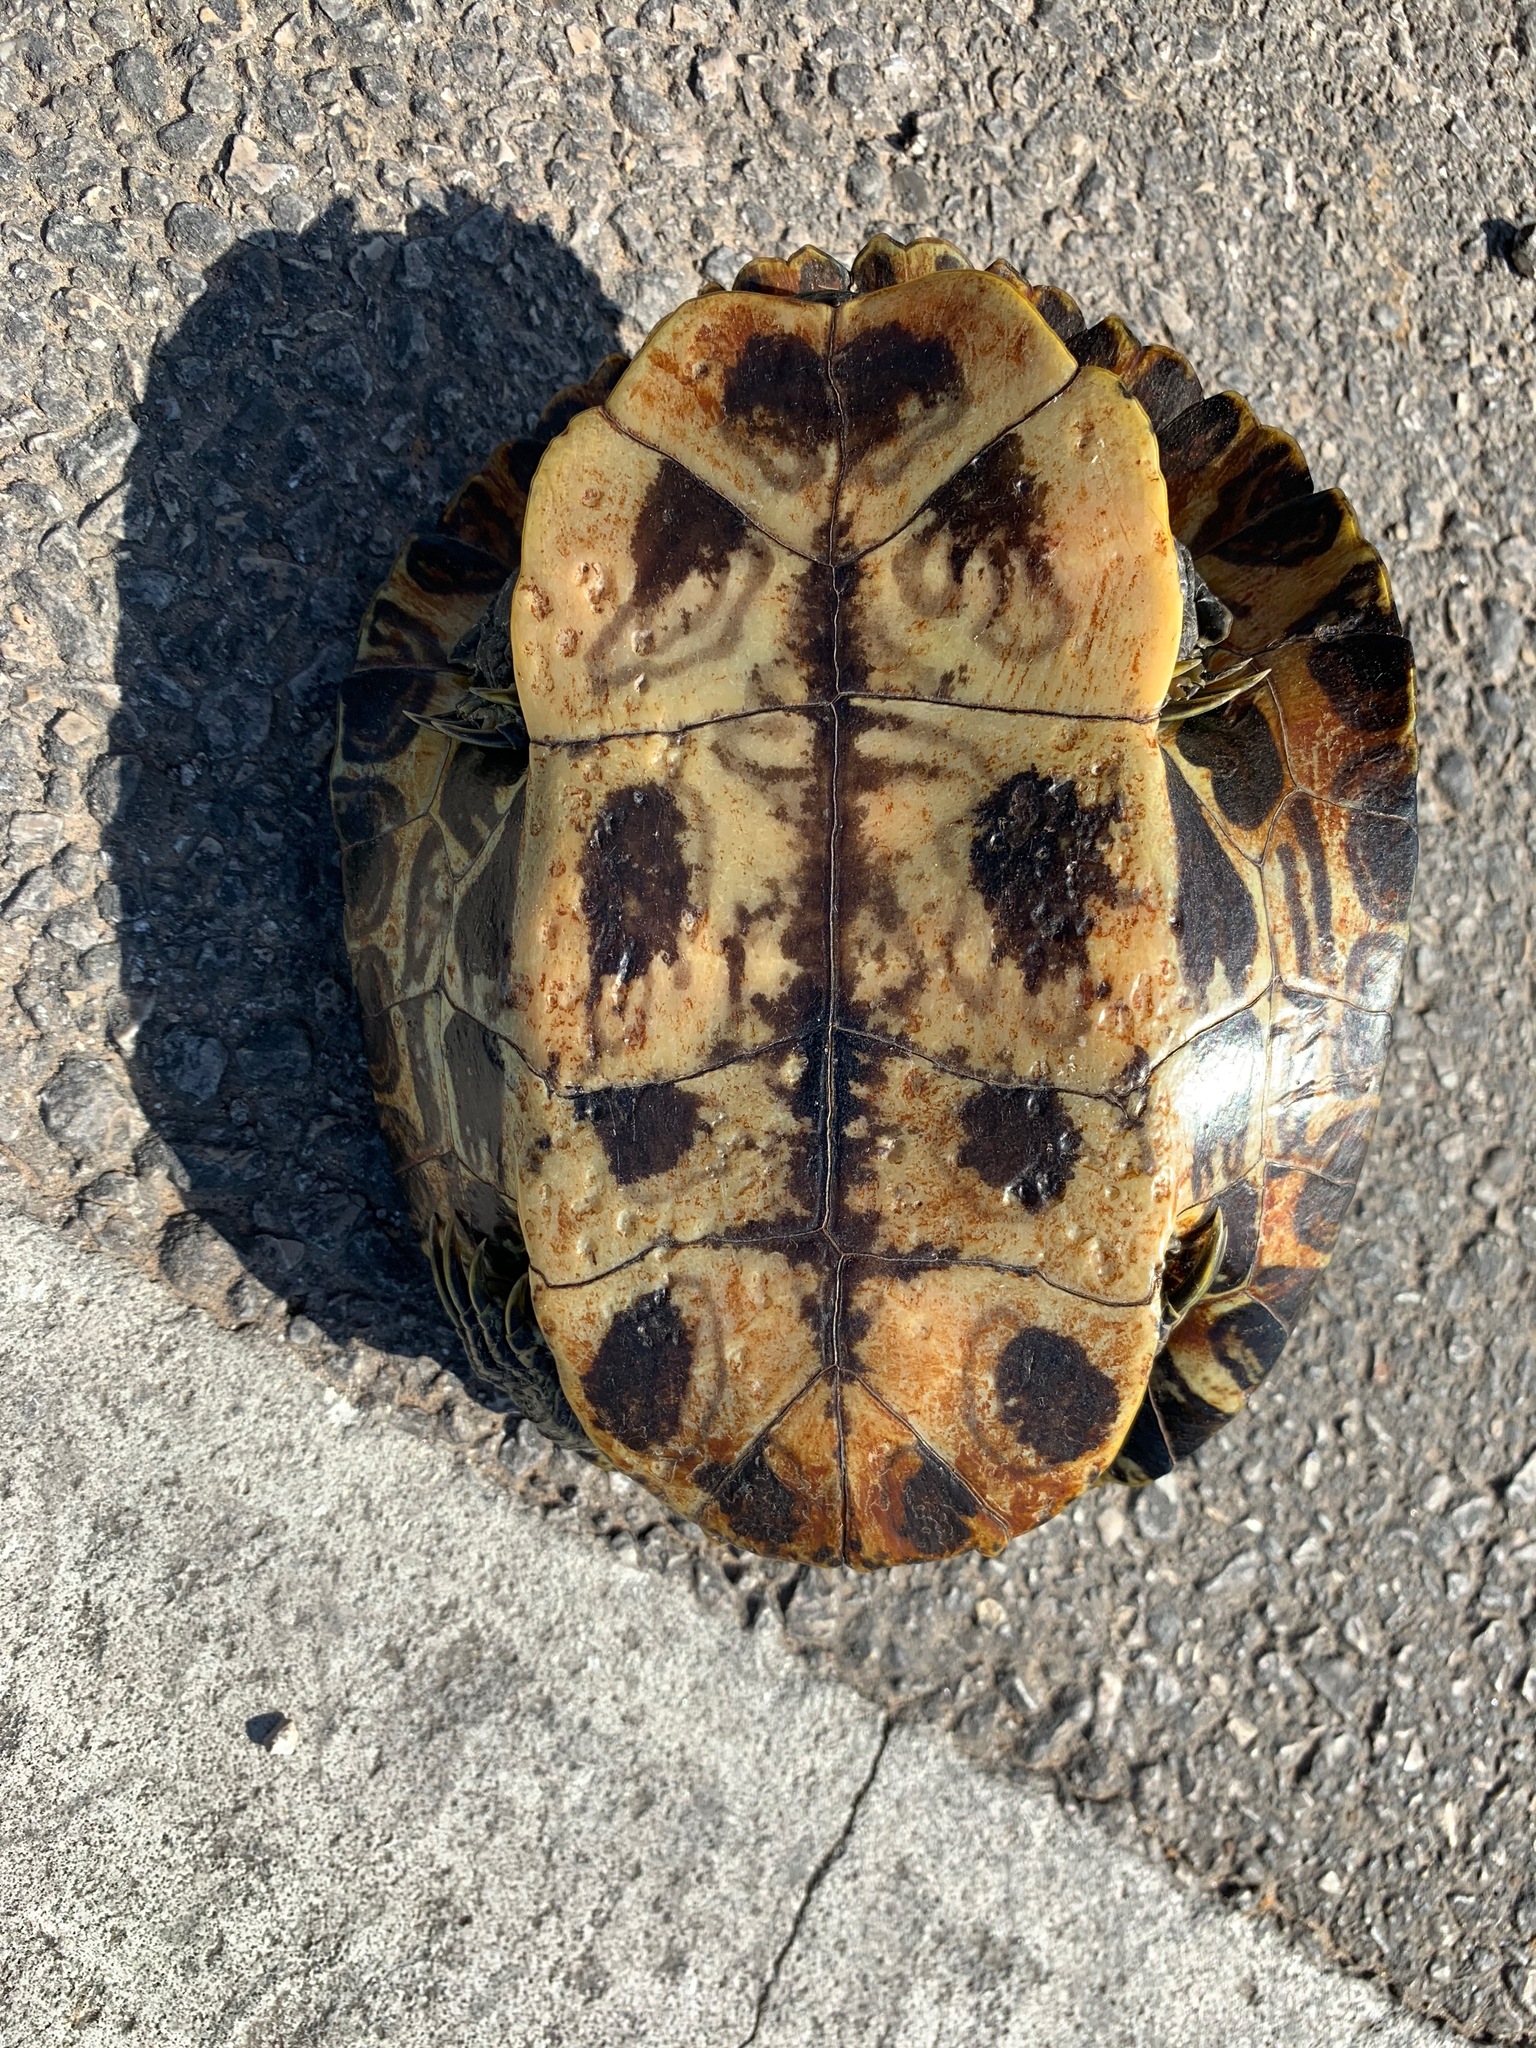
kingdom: Animalia
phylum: Chordata
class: Testudines
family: Emydidae
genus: Trachemys
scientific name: Trachemys scripta
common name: Slider
